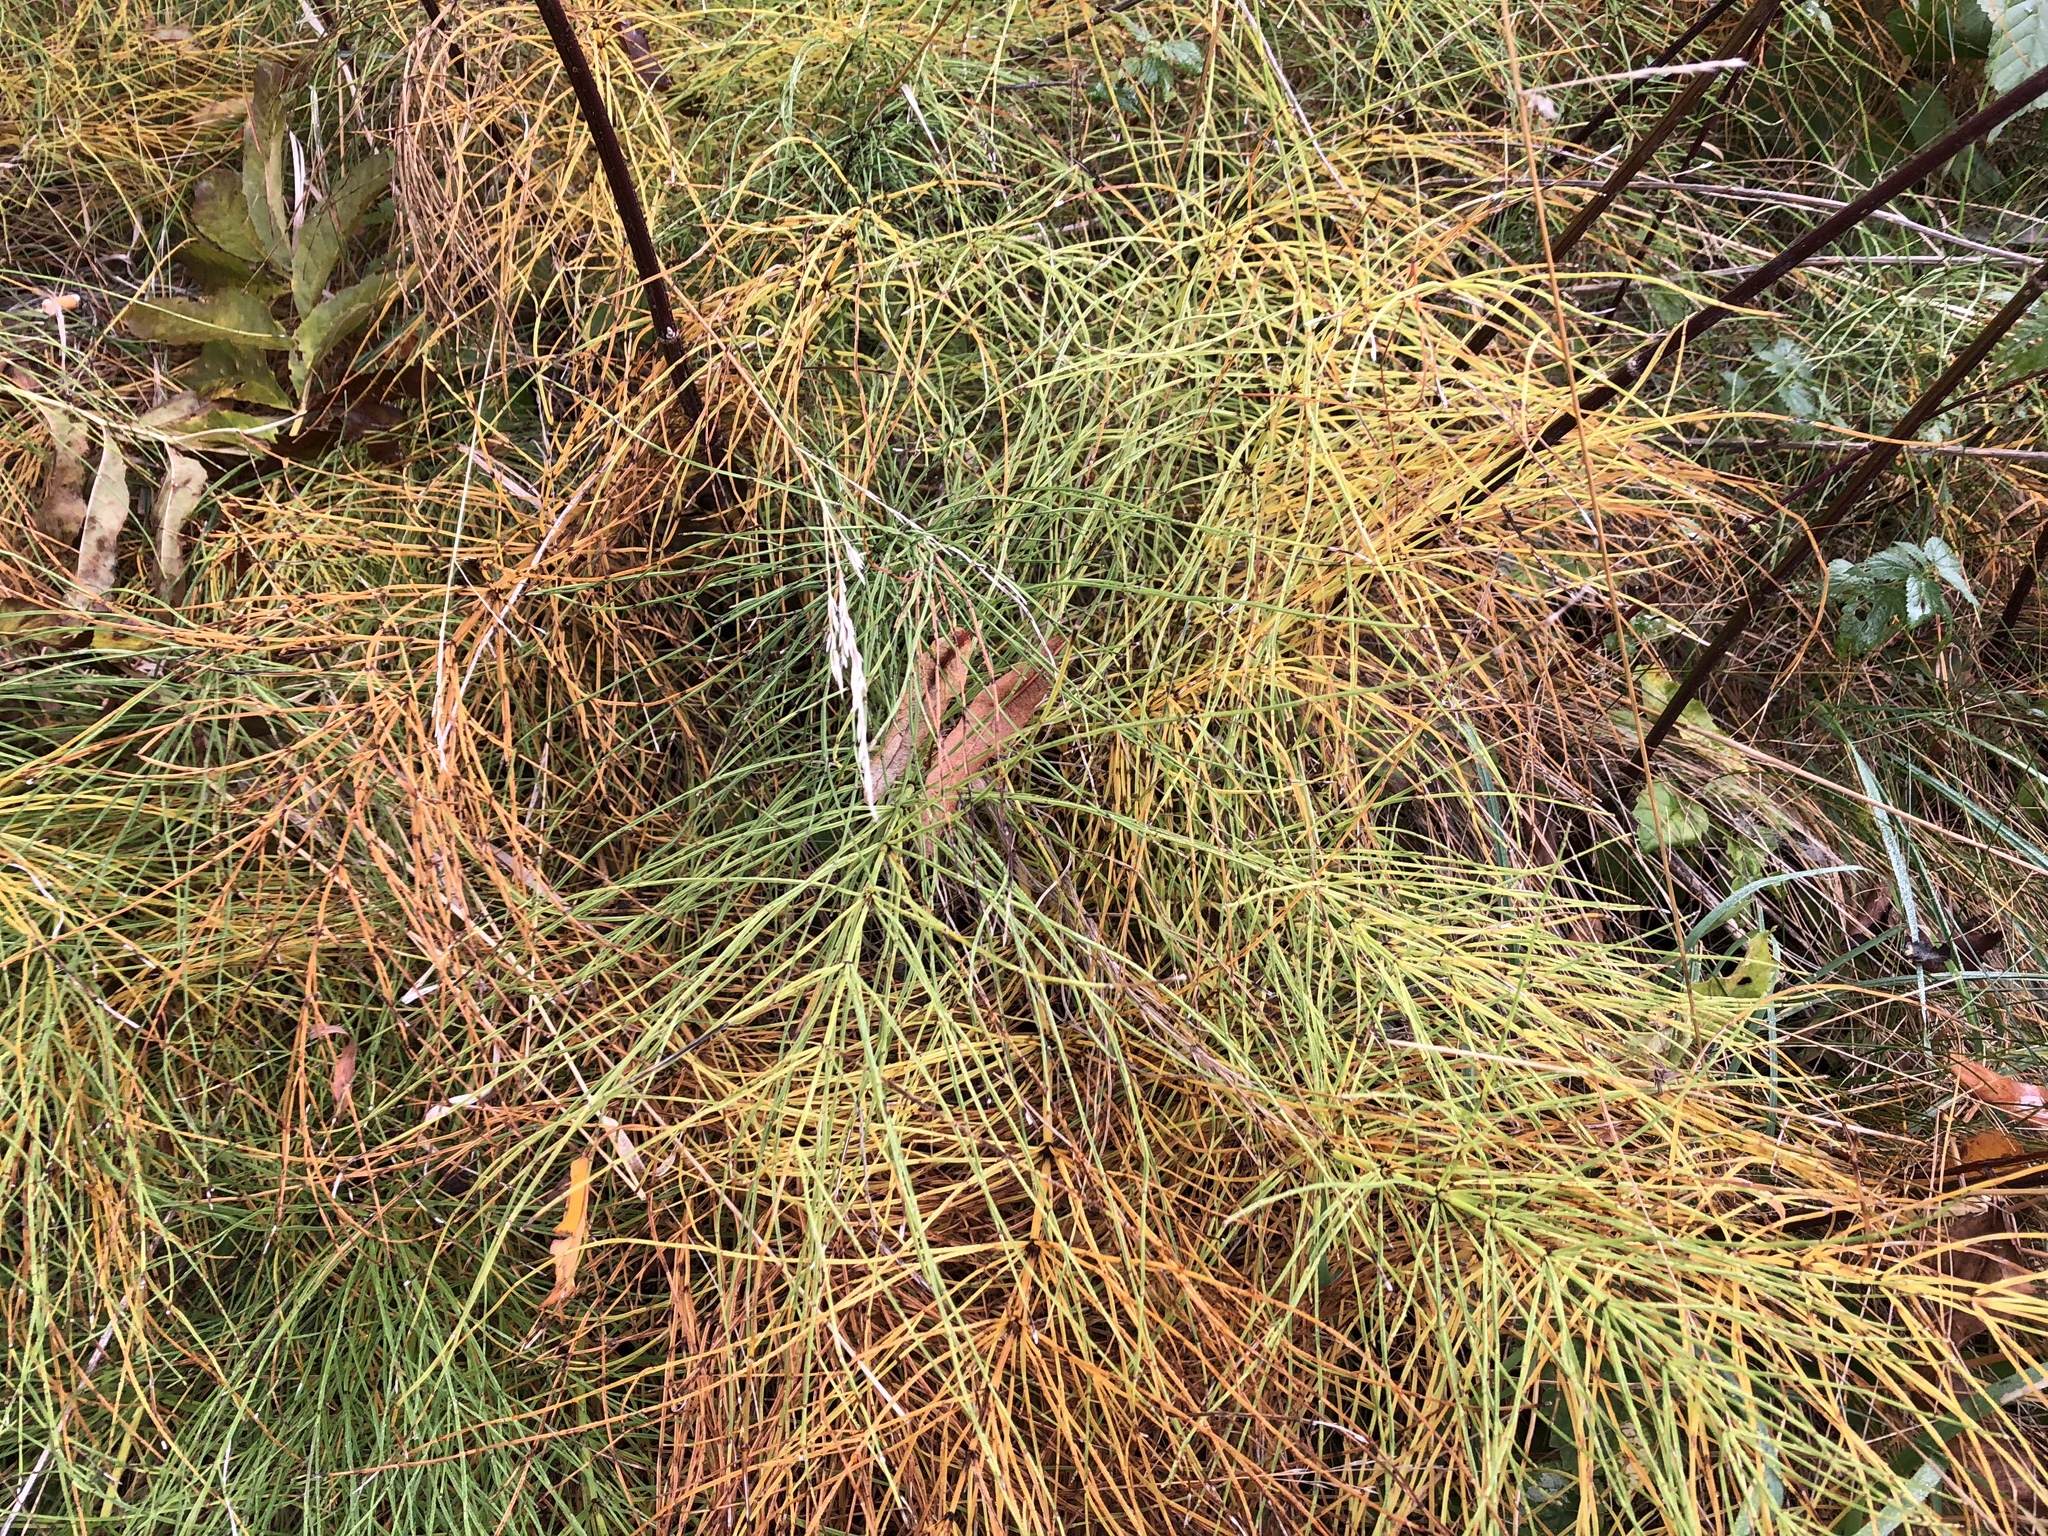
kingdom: Plantae
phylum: Tracheophyta
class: Polypodiopsida
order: Equisetales
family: Equisetaceae
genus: Equisetum
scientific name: Equisetum arvense
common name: Field horsetail
